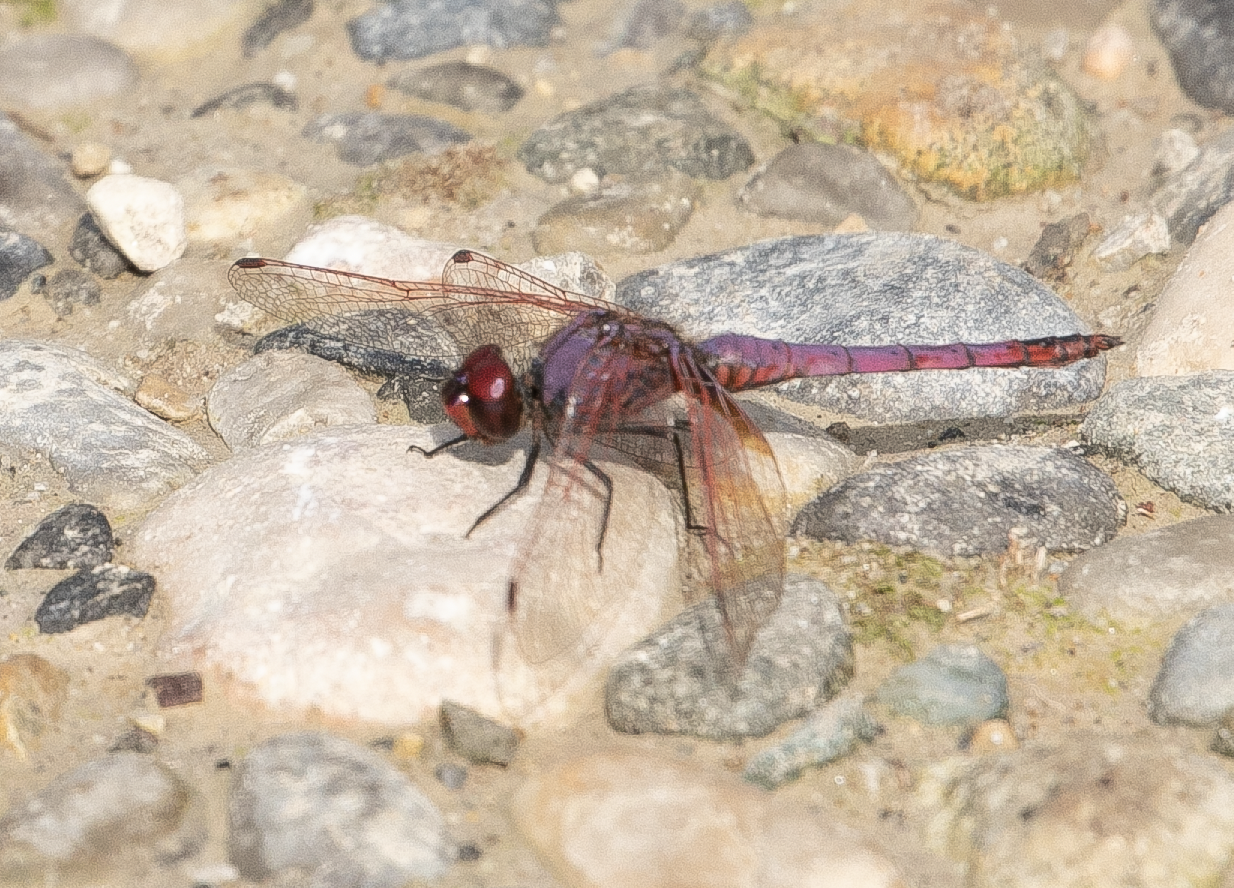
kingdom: Animalia
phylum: Arthropoda
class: Insecta
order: Odonata
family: Libellulidae
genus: Trithemis
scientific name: Trithemis annulata
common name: Violet dropwing
